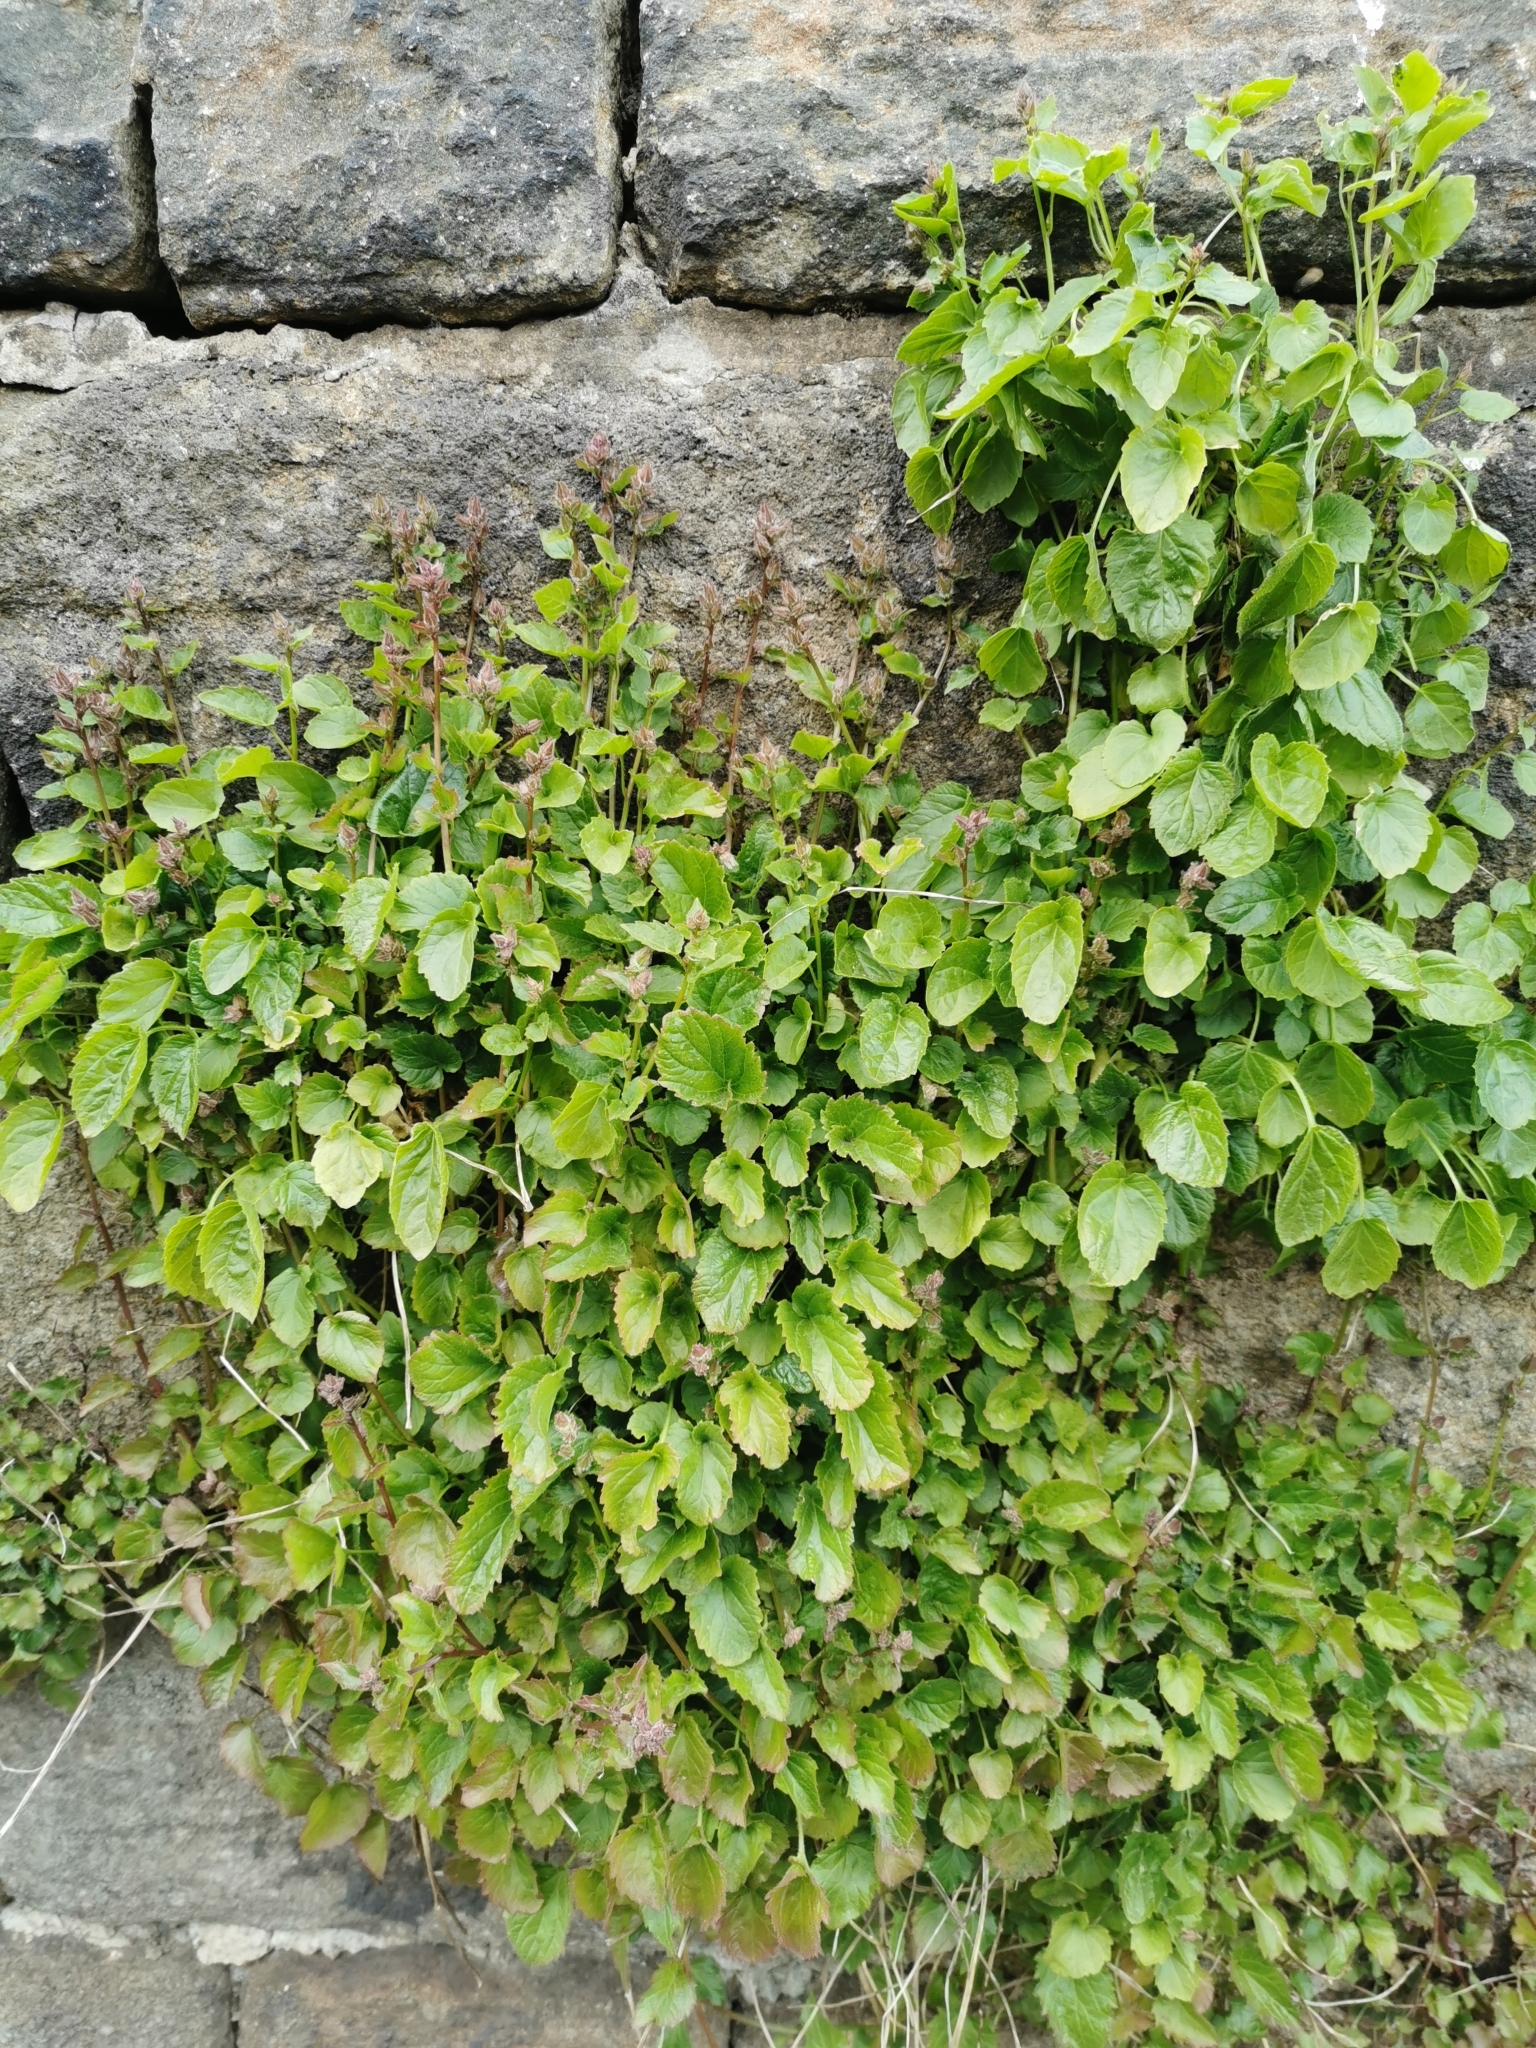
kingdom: Plantae
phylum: Tracheophyta
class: Magnoliopsida
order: Asterales
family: Campanulaceae
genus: Campanula
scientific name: Campanula poscharskyana
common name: Trailing bellflower
